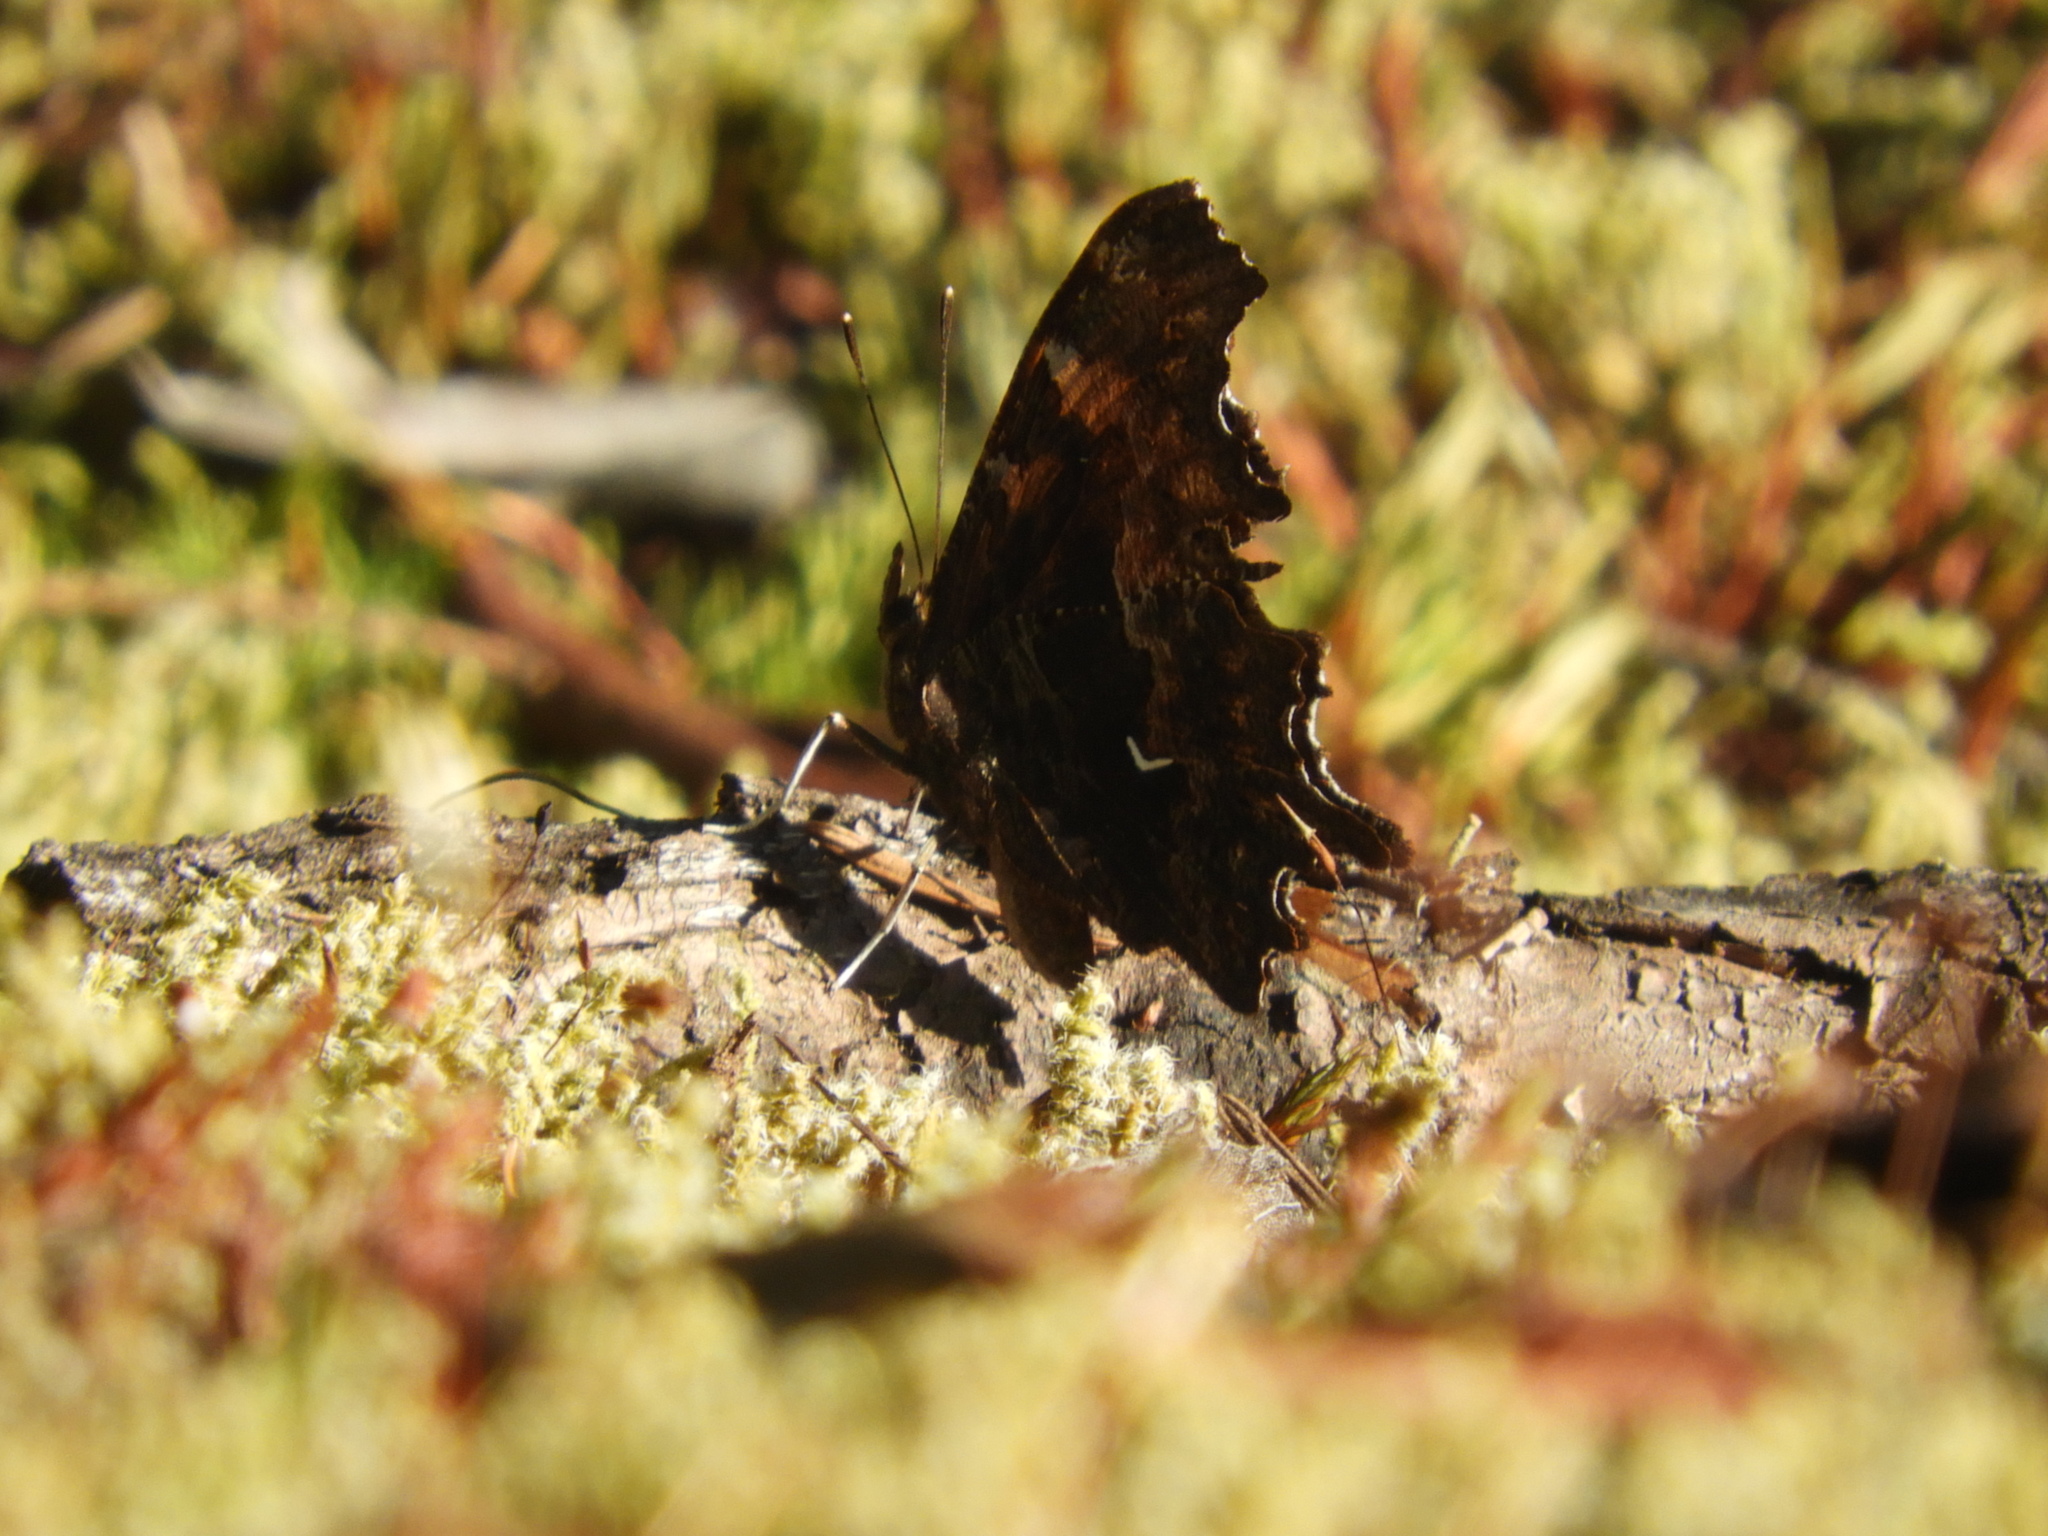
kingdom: Animalia
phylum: Arthropoda
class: Insecta
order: Lepidoptera
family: Nymphalidae
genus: Polygonia
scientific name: Polygonia oreas
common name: Oreas comma
